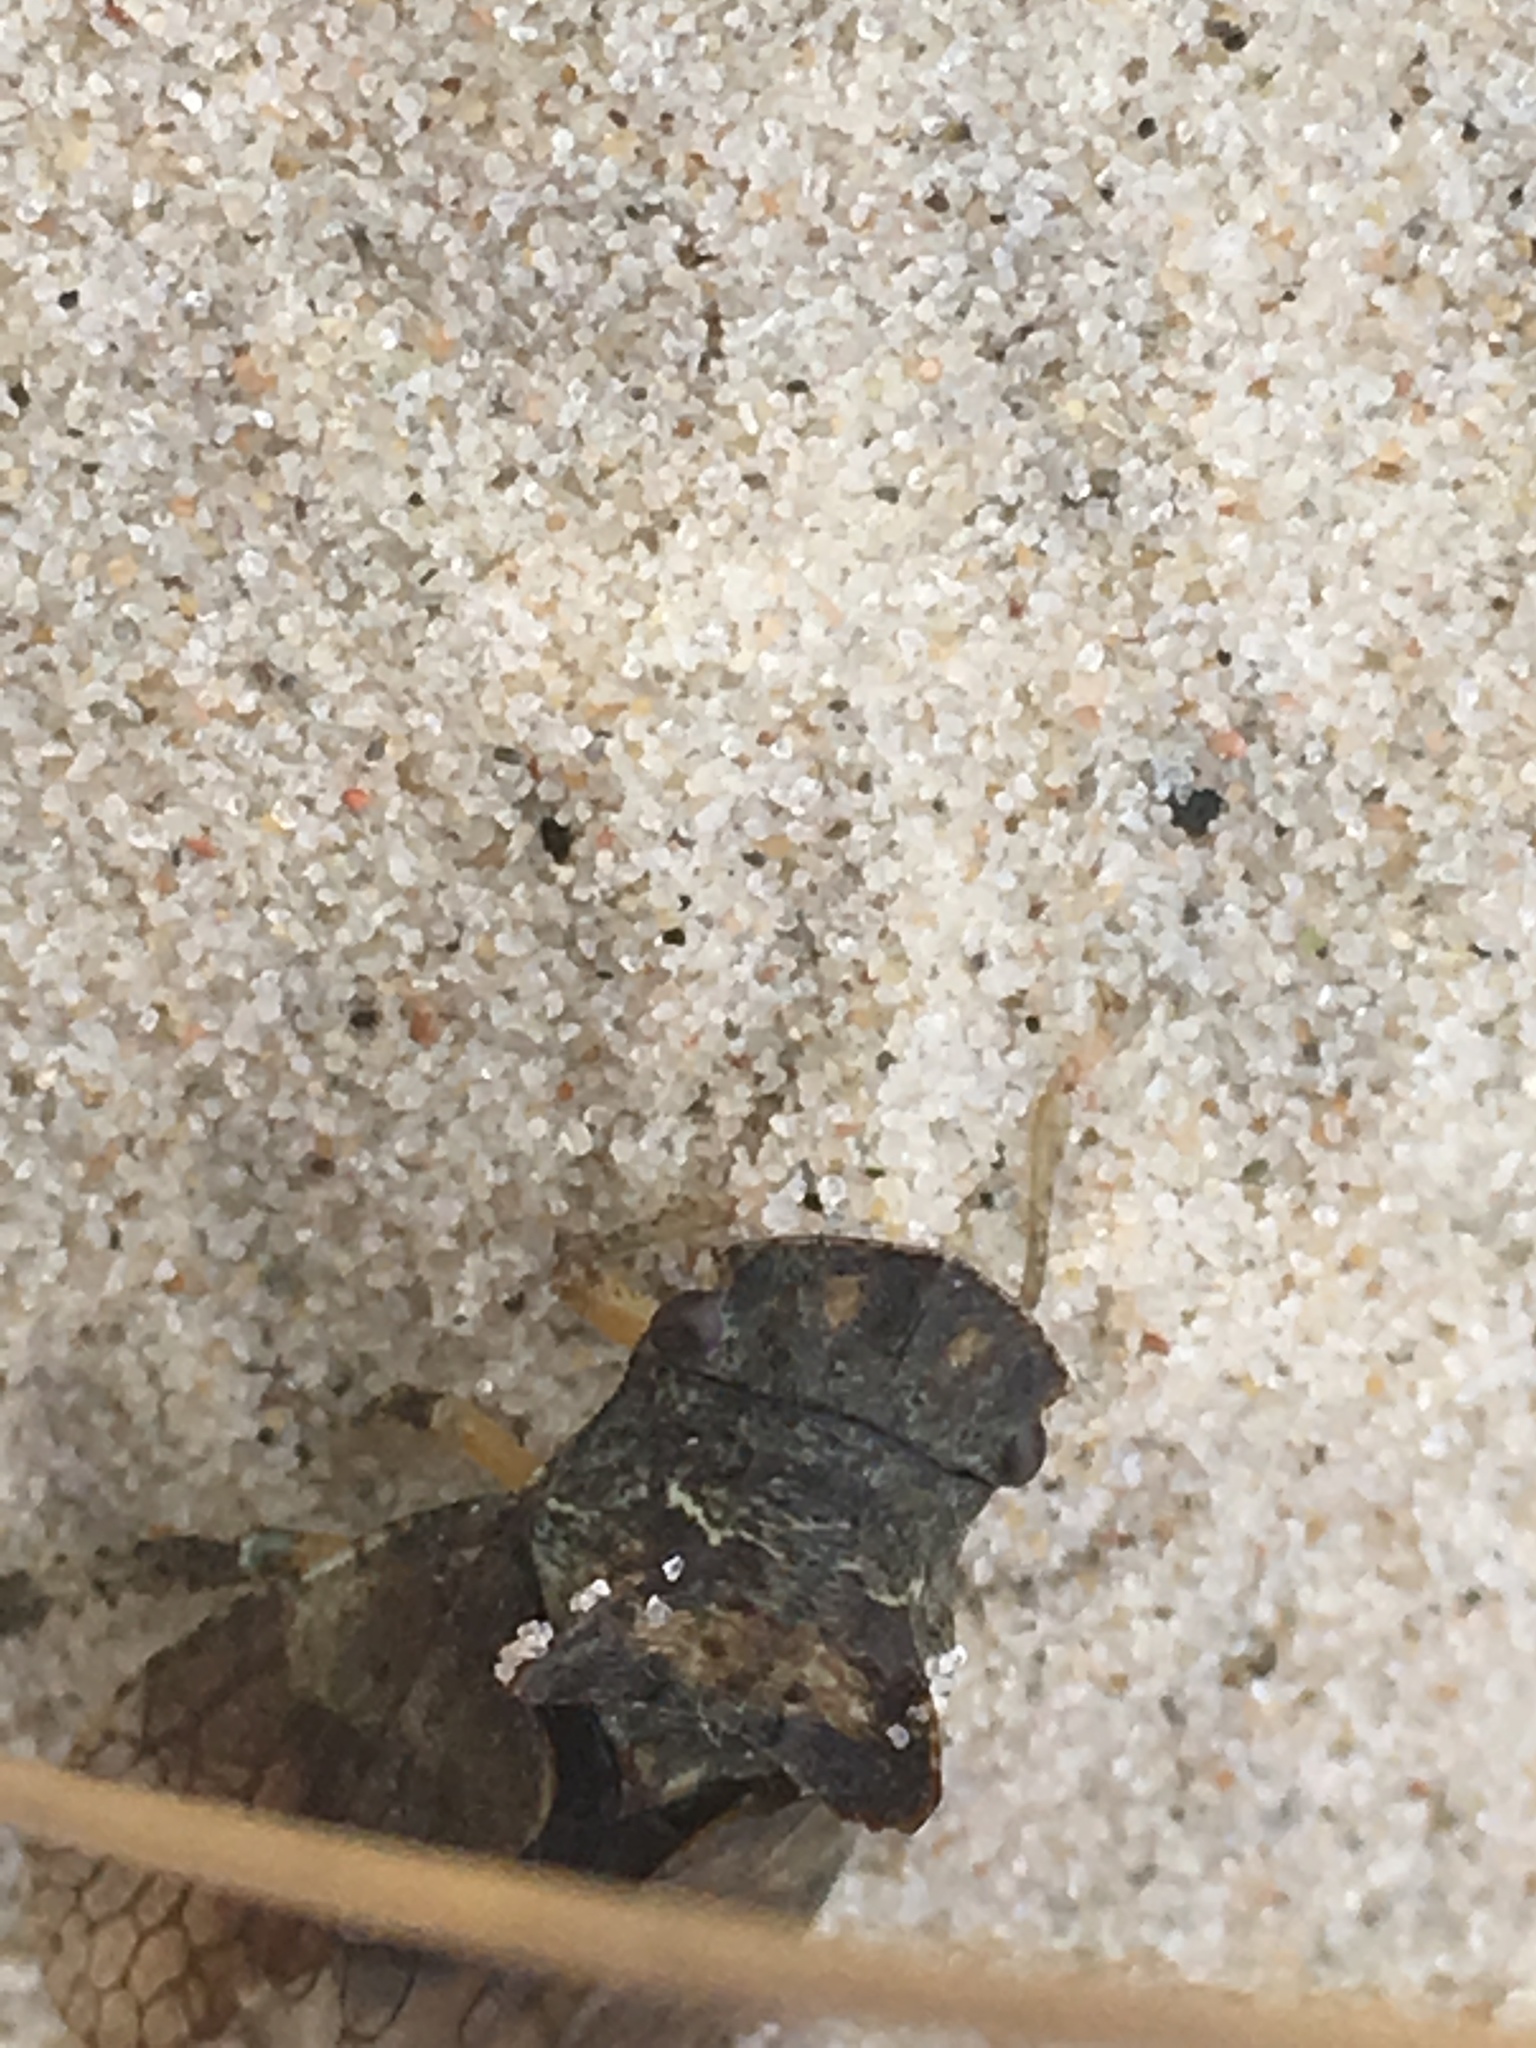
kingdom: Animalia
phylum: Arthropoda
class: Insecta
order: Hemiptera
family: Cicadellidae
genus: Ledra
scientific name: Ledra aurita
